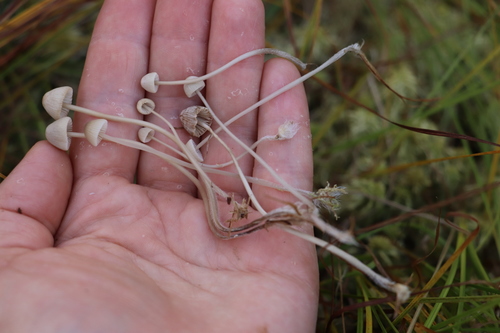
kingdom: Fungi
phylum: Basidiomycota
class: Agaricomycetes
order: Agaricales
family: Mycenaceae
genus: Mycena
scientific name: Mycena
